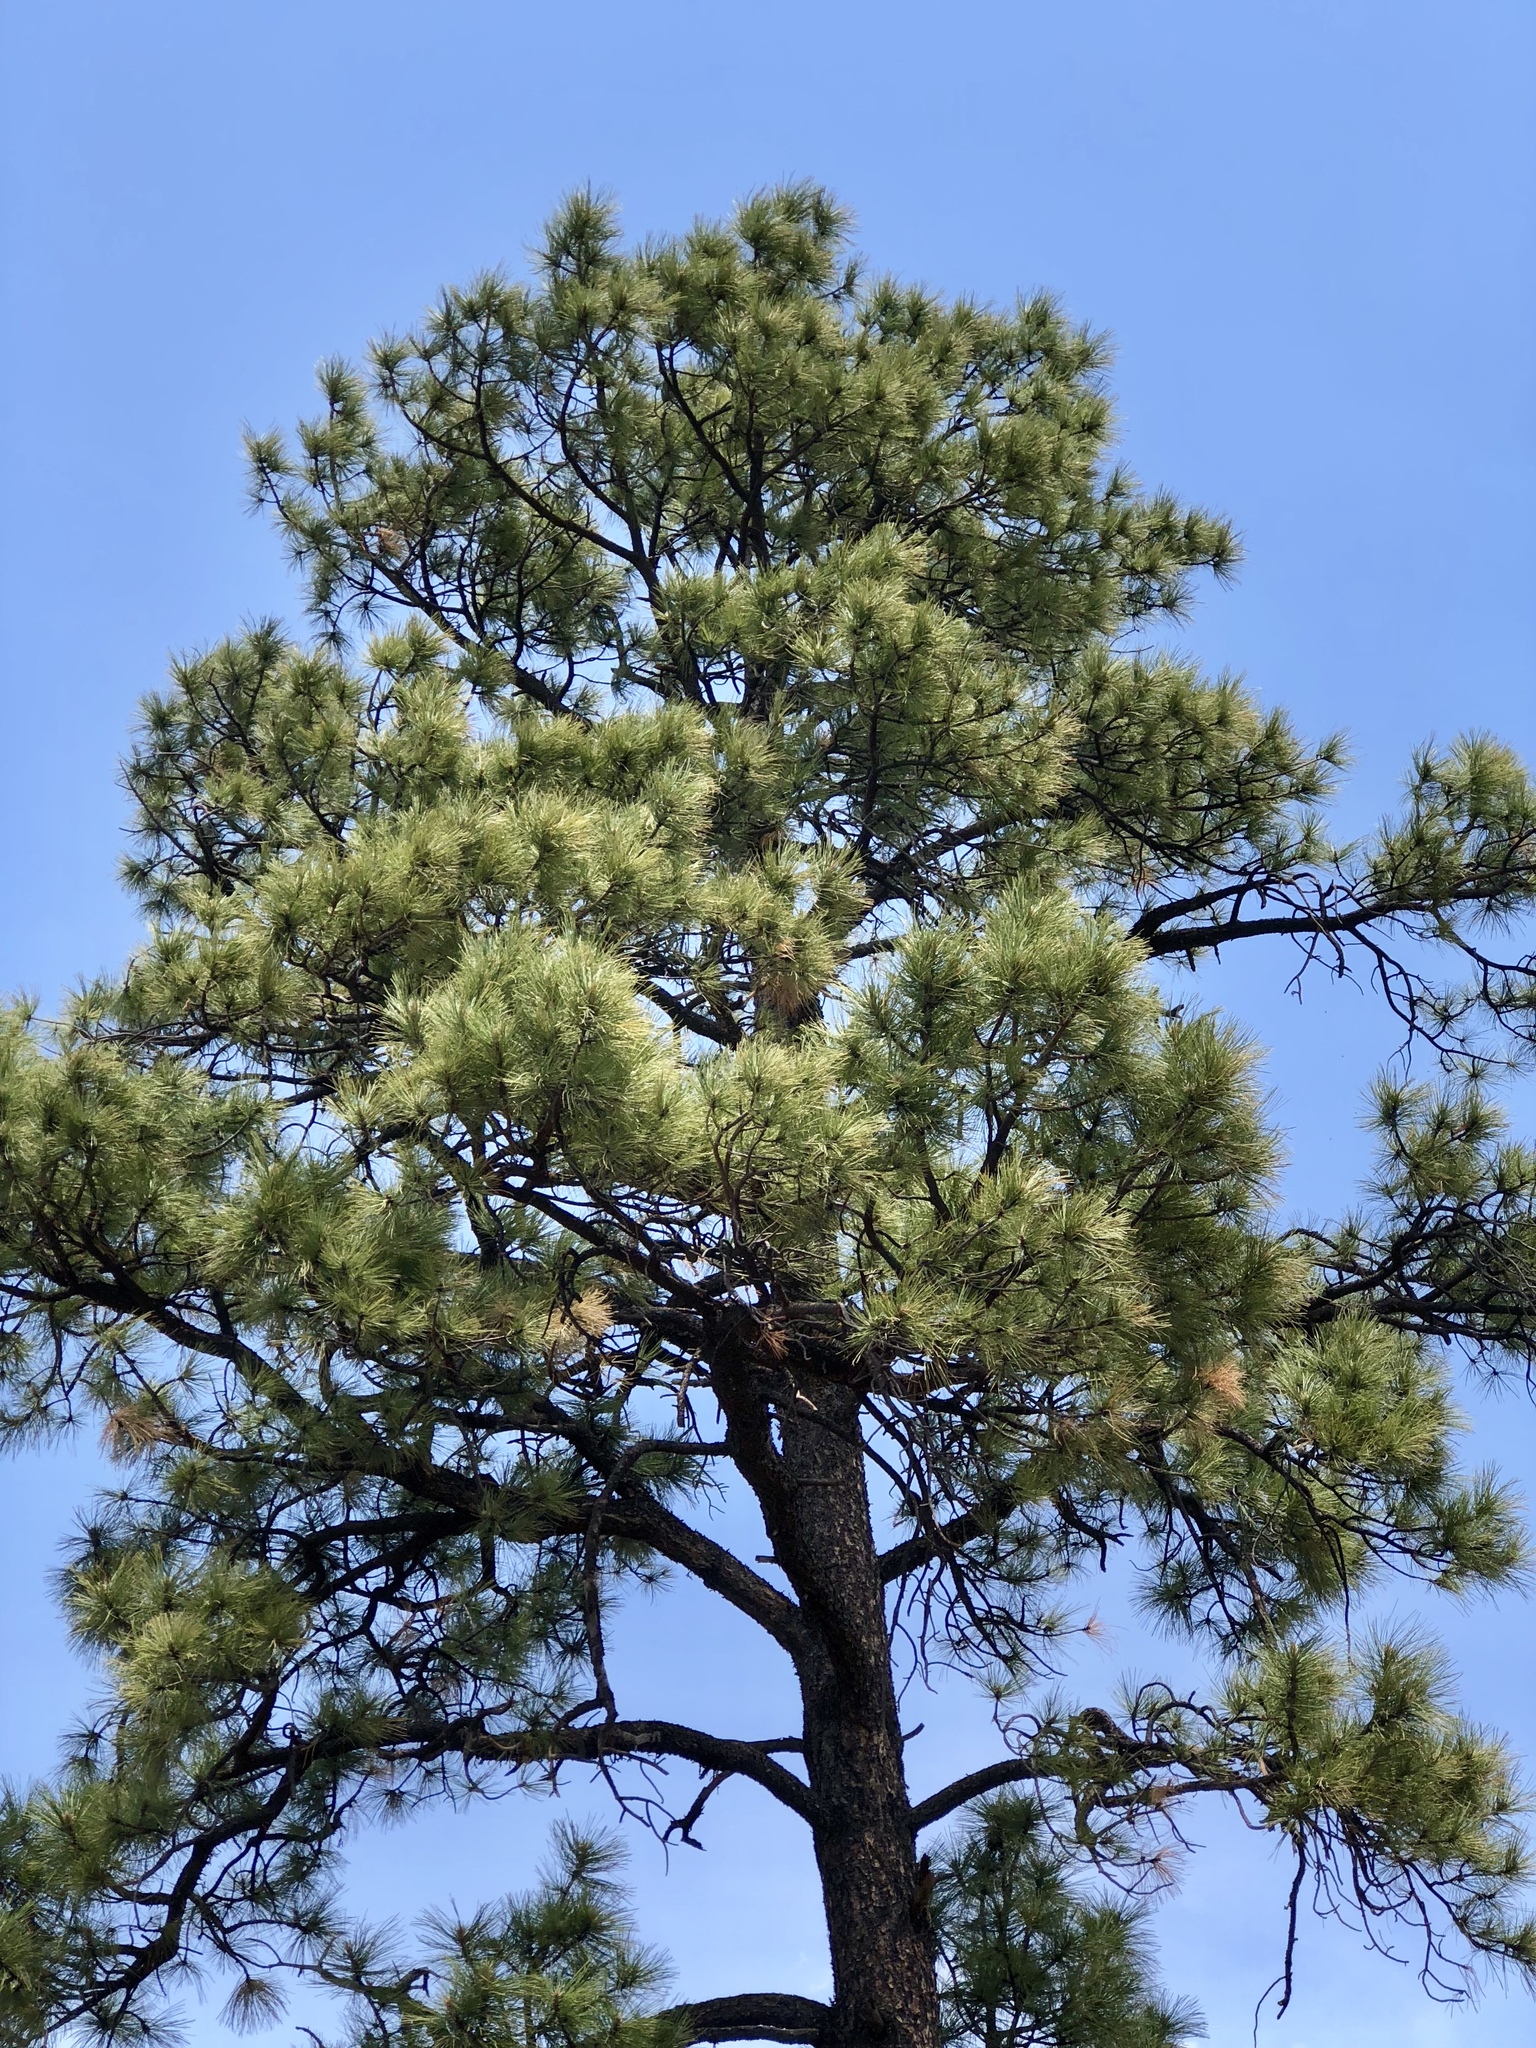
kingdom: Plantae
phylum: Tracheophyta
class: Pinopsida
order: Pinales
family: Pinaceae
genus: Pinus
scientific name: Pinus ponderosa
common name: Western yellow-pine
